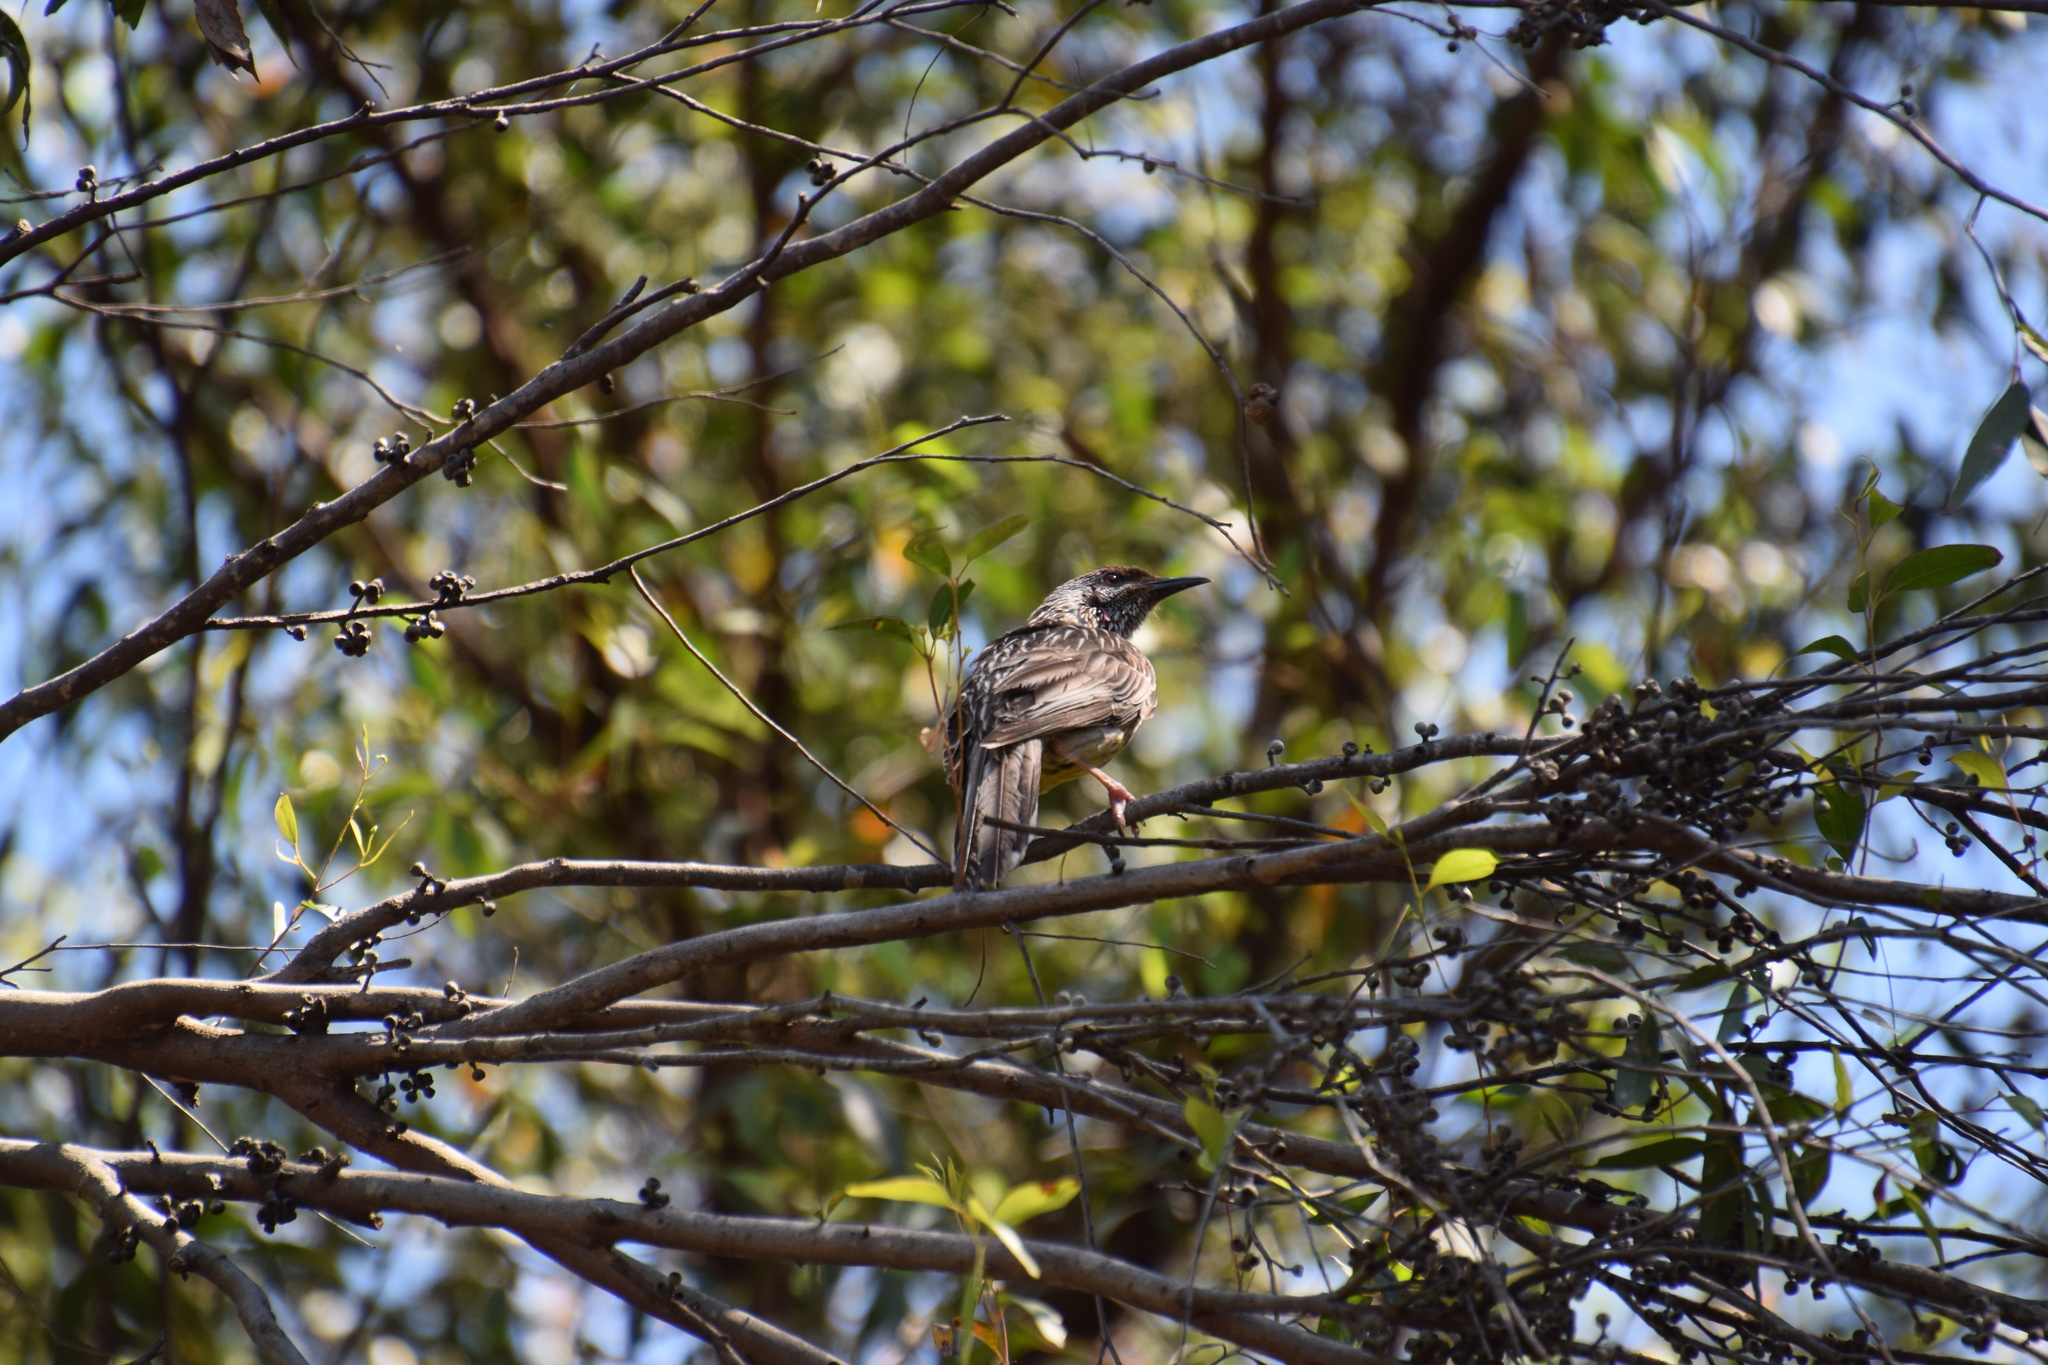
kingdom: Animalia
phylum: Chordata
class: Aves
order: Passeriformes
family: Meliphagidae
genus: Anthochaera
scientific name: Anthochaera carunculata
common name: Red wattlebird
